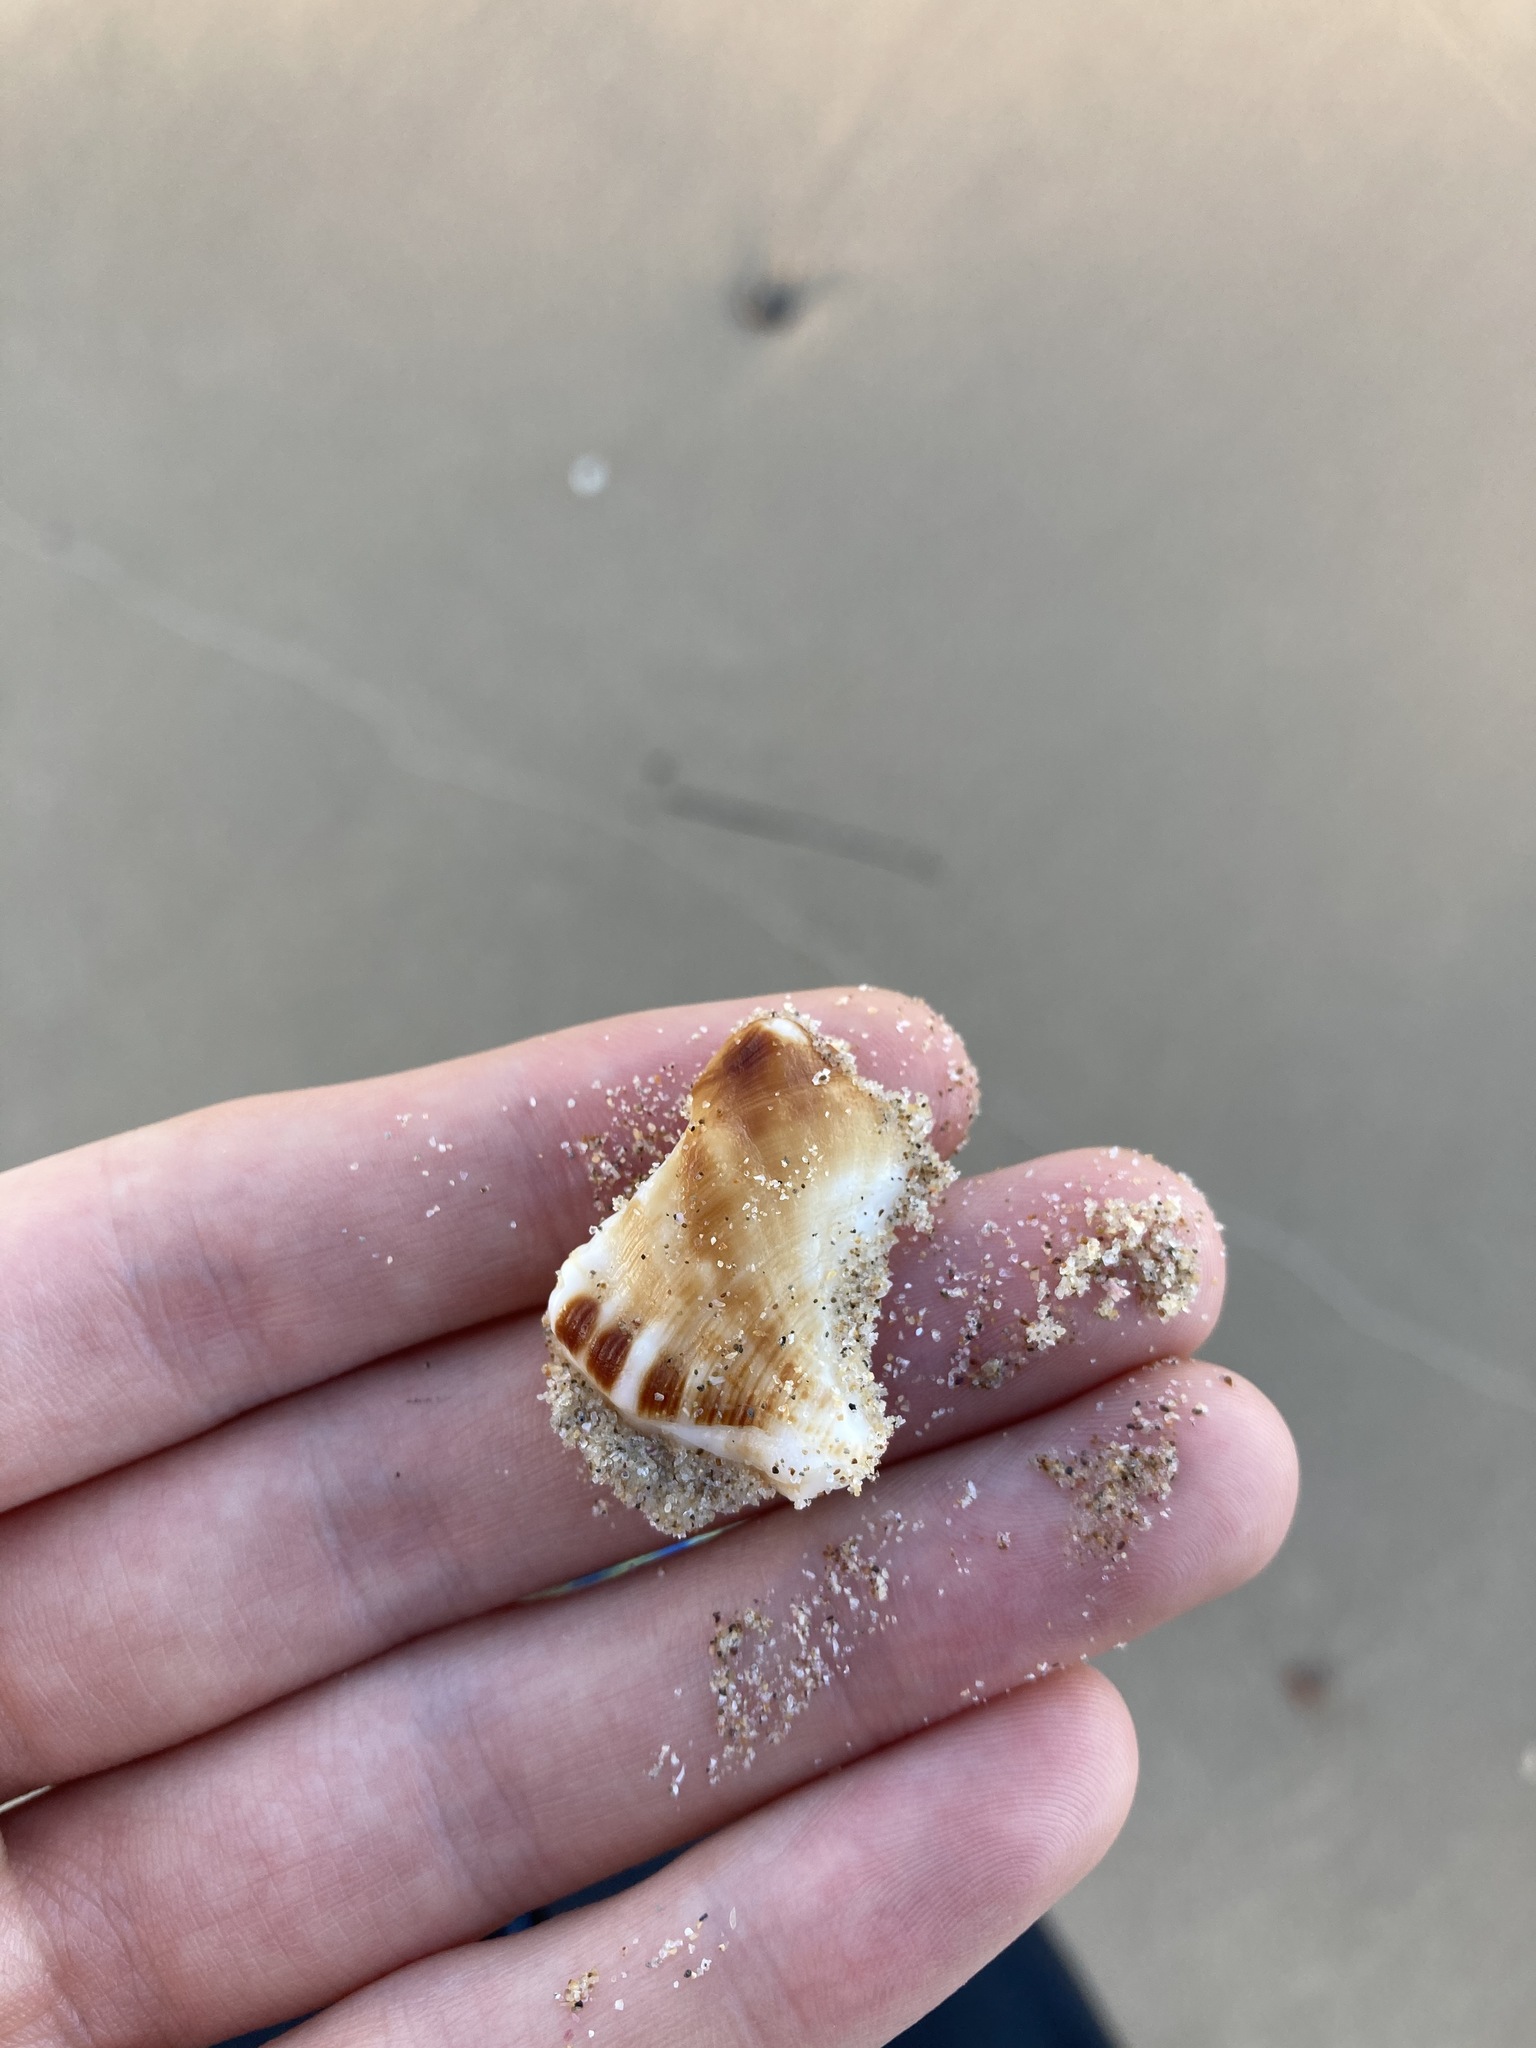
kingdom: Animalia
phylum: Mollusca
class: Gastropoda
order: Littorinimorpha
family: Ranellidae
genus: Ranella
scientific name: Ranella australasia
